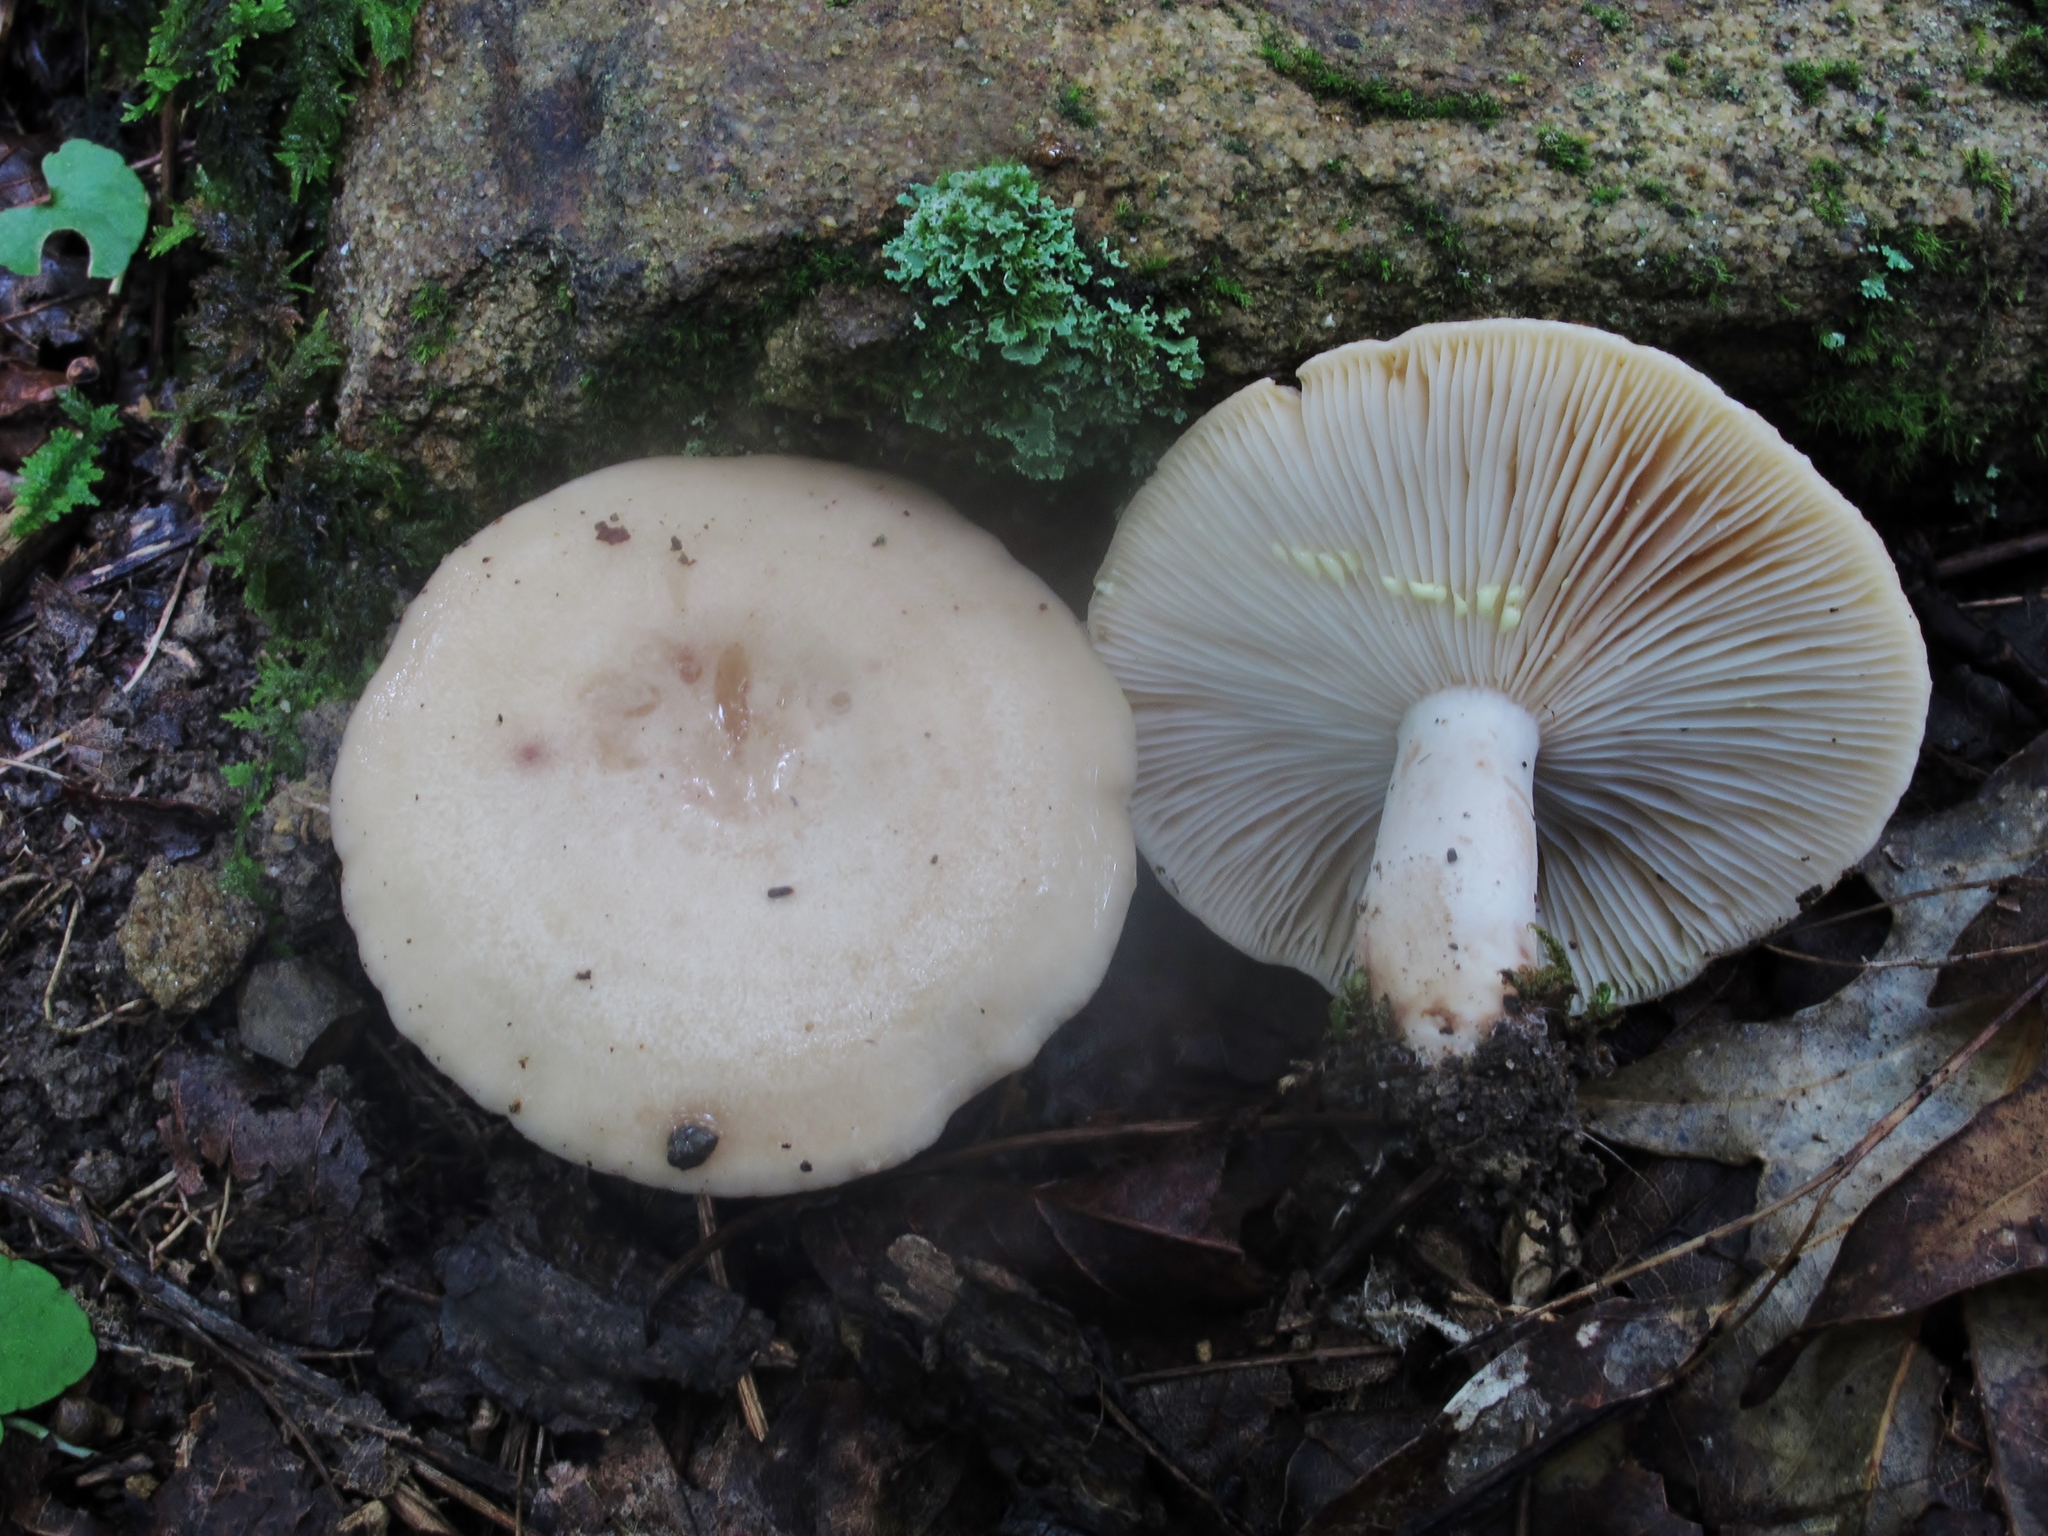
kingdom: Fungi
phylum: Basidiomycota
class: Agaricomycetes
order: Russulales
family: Russulaceae
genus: Lactarius
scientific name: Lactarius chrysorrheus
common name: Yellowdrop milkcap
